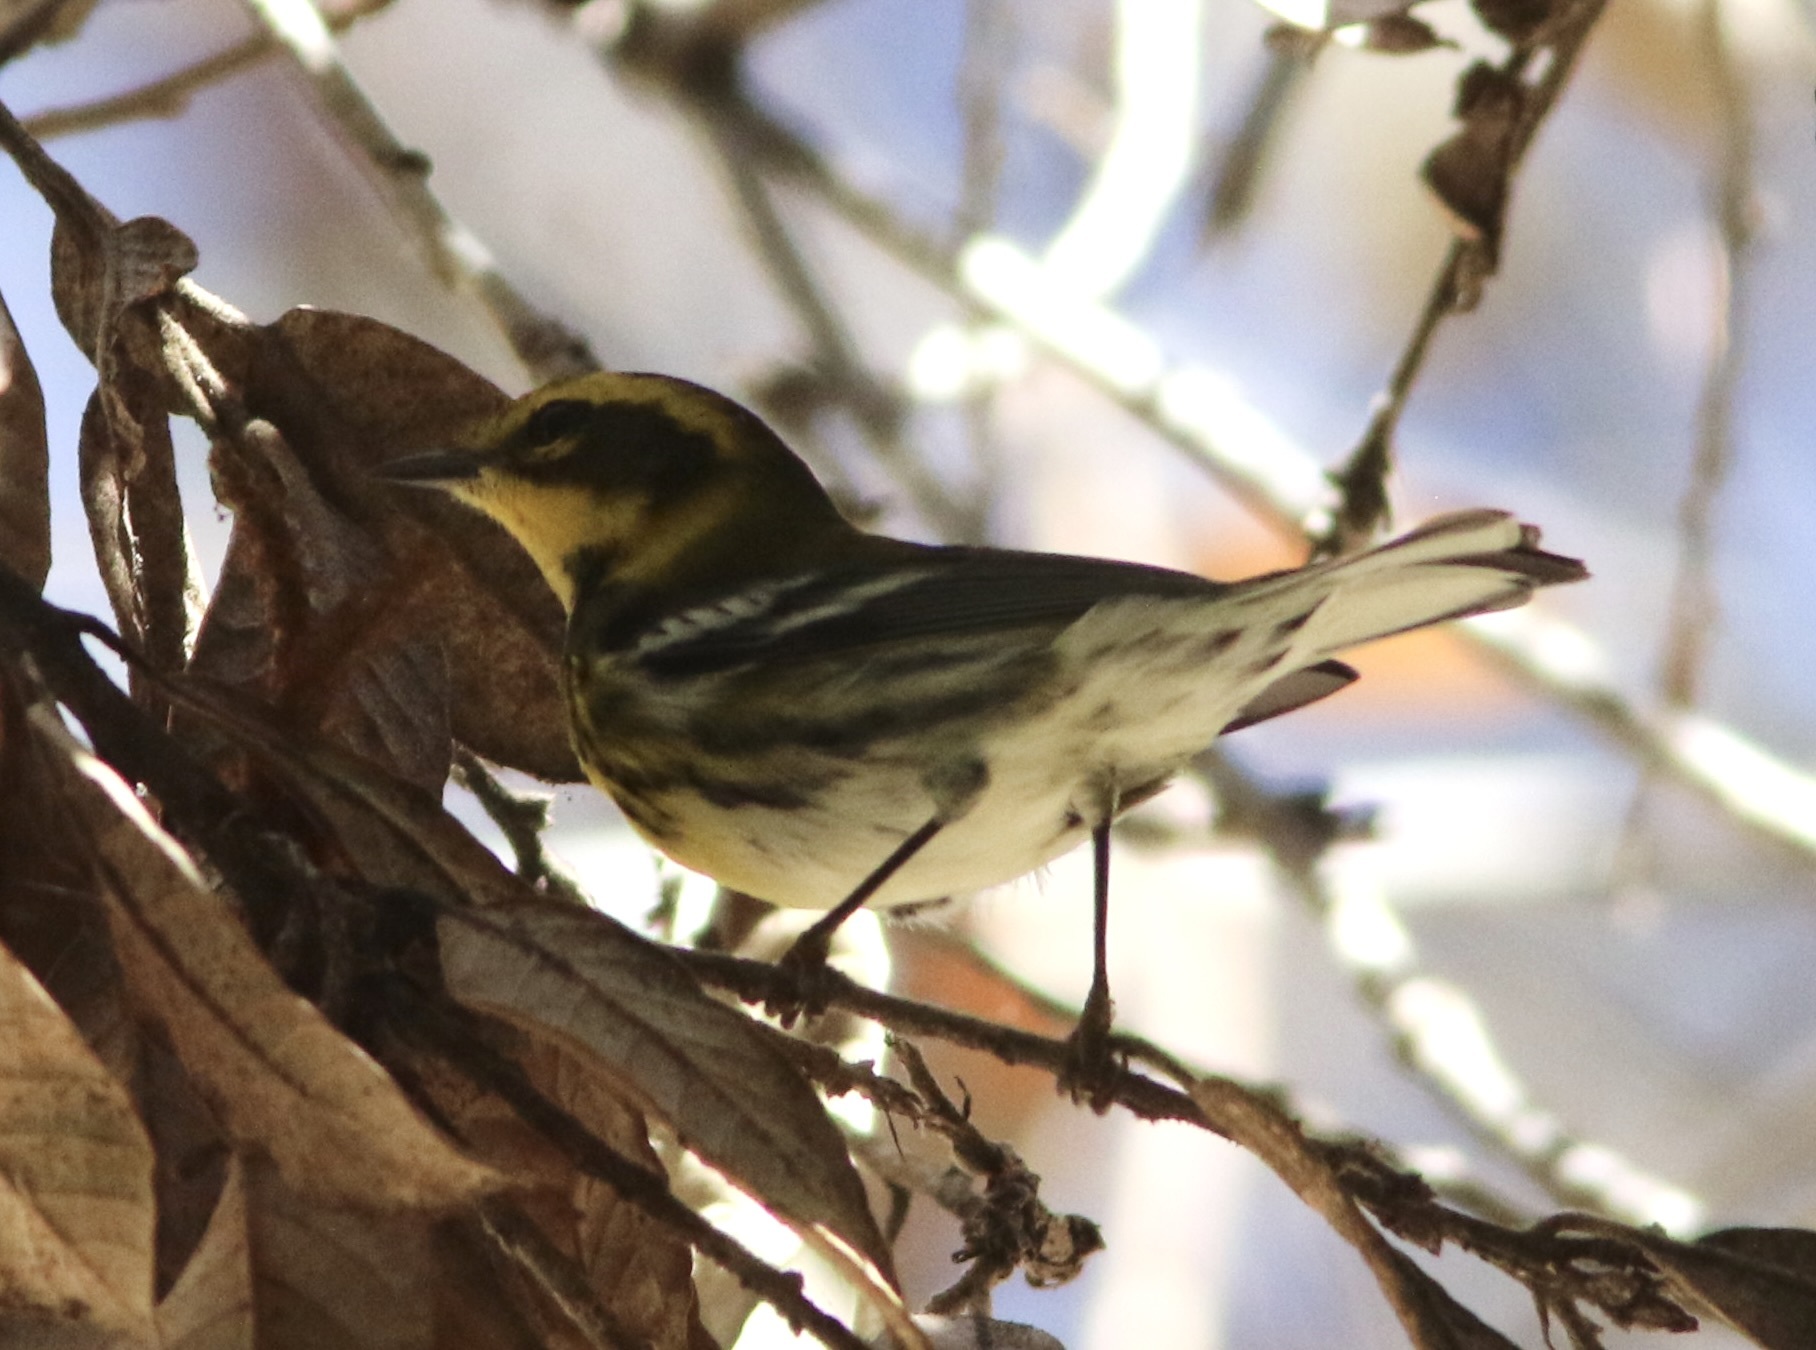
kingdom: Animalia
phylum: Chordata
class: Aves
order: Passeriformes
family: Parulidae
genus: Setophaga
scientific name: Setophaga townsendi
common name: Townsend's warbler
